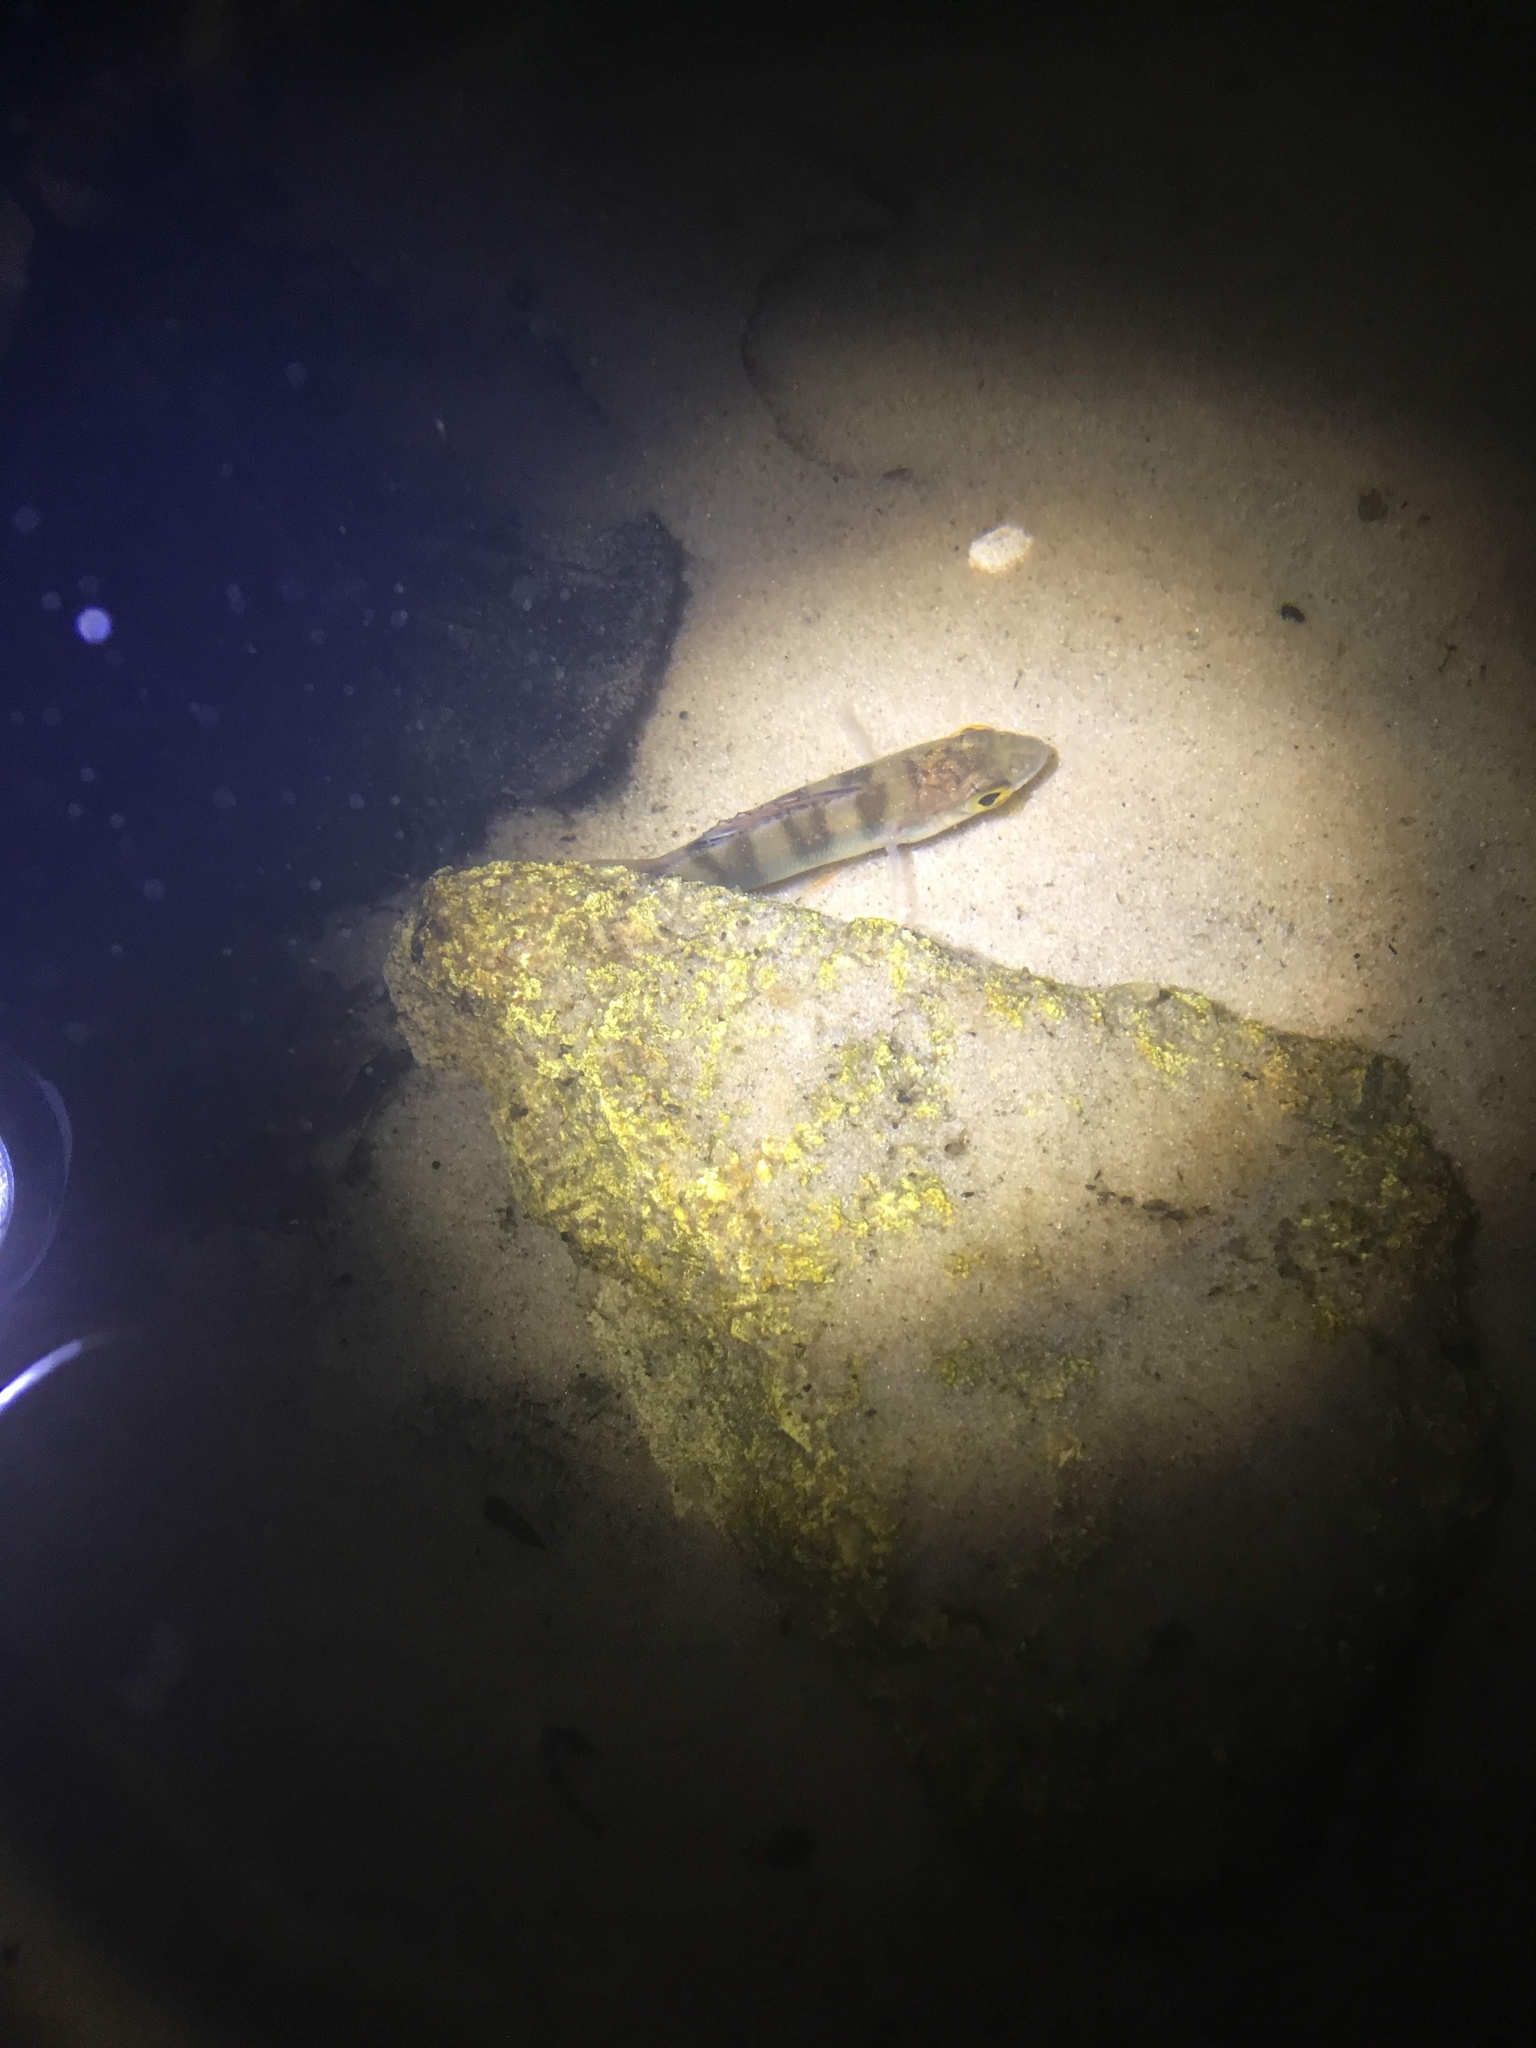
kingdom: Animalia
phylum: Chordata
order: Perciformes
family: Percidae
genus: Perca
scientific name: Perca fluviatilis
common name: Perch
